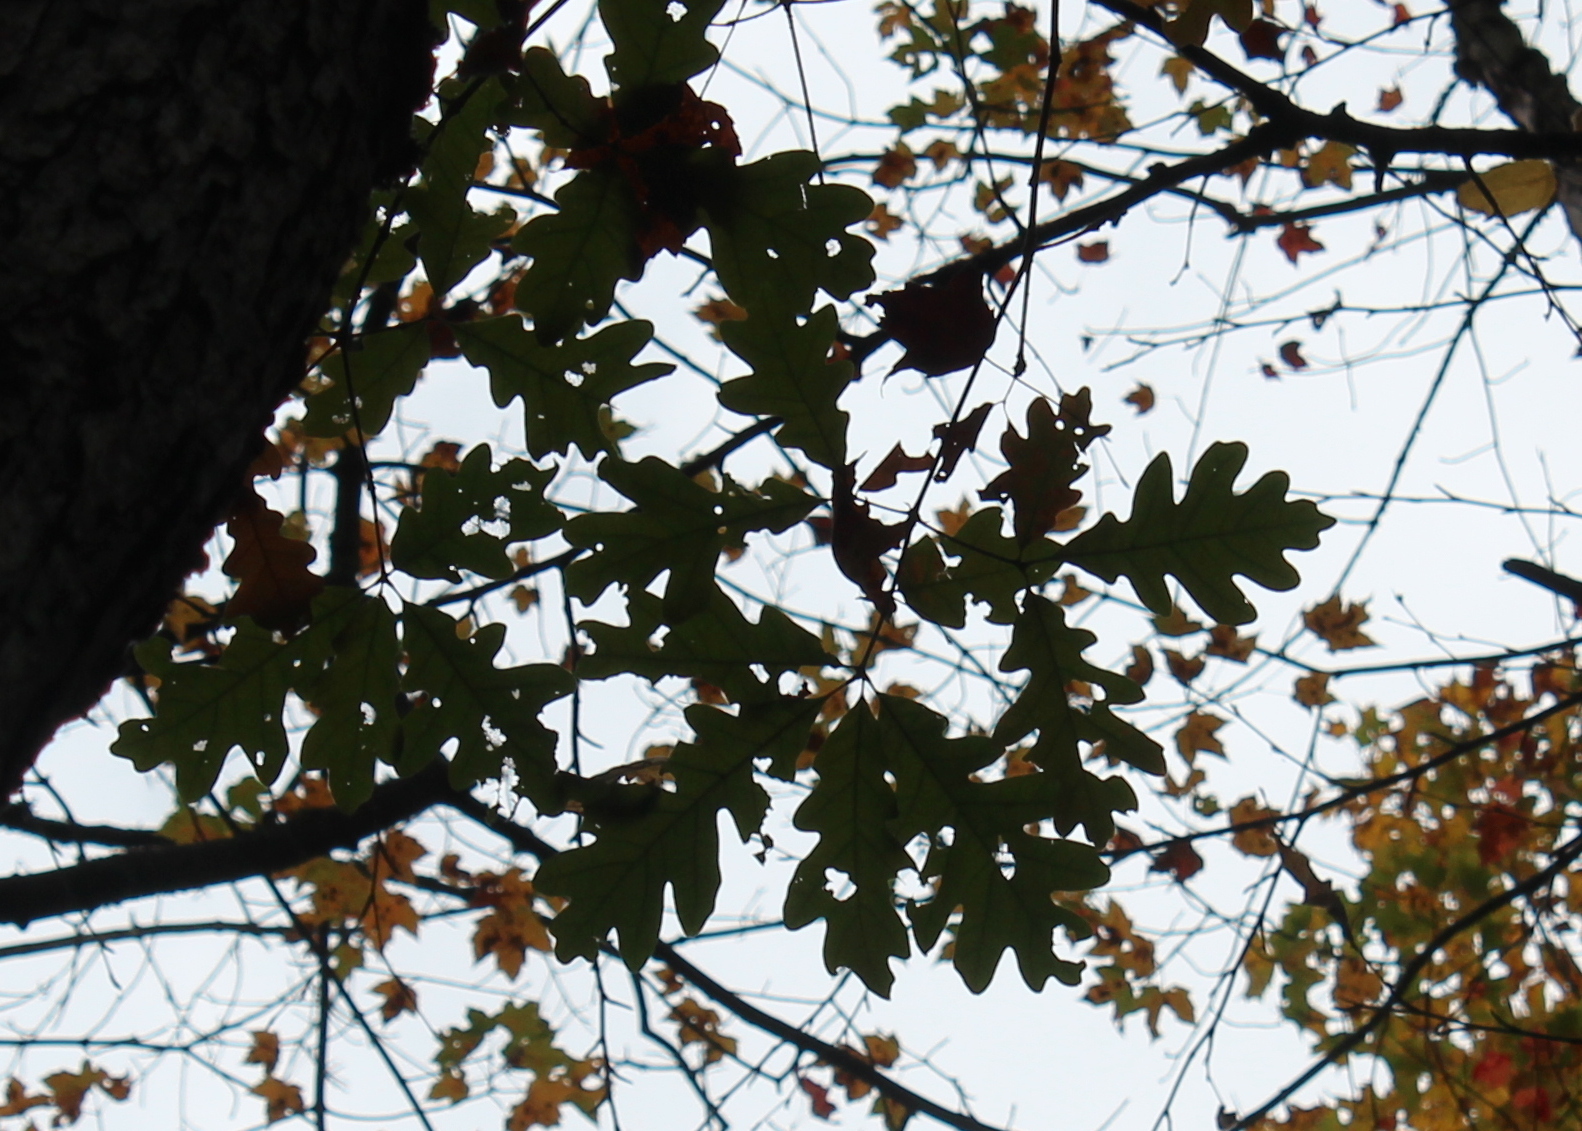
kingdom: Plantae
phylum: Tracheophyta
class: Magnoliopsida
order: Fagales
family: Fagaceae
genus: Quercus
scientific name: Quercus alba
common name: White oak
